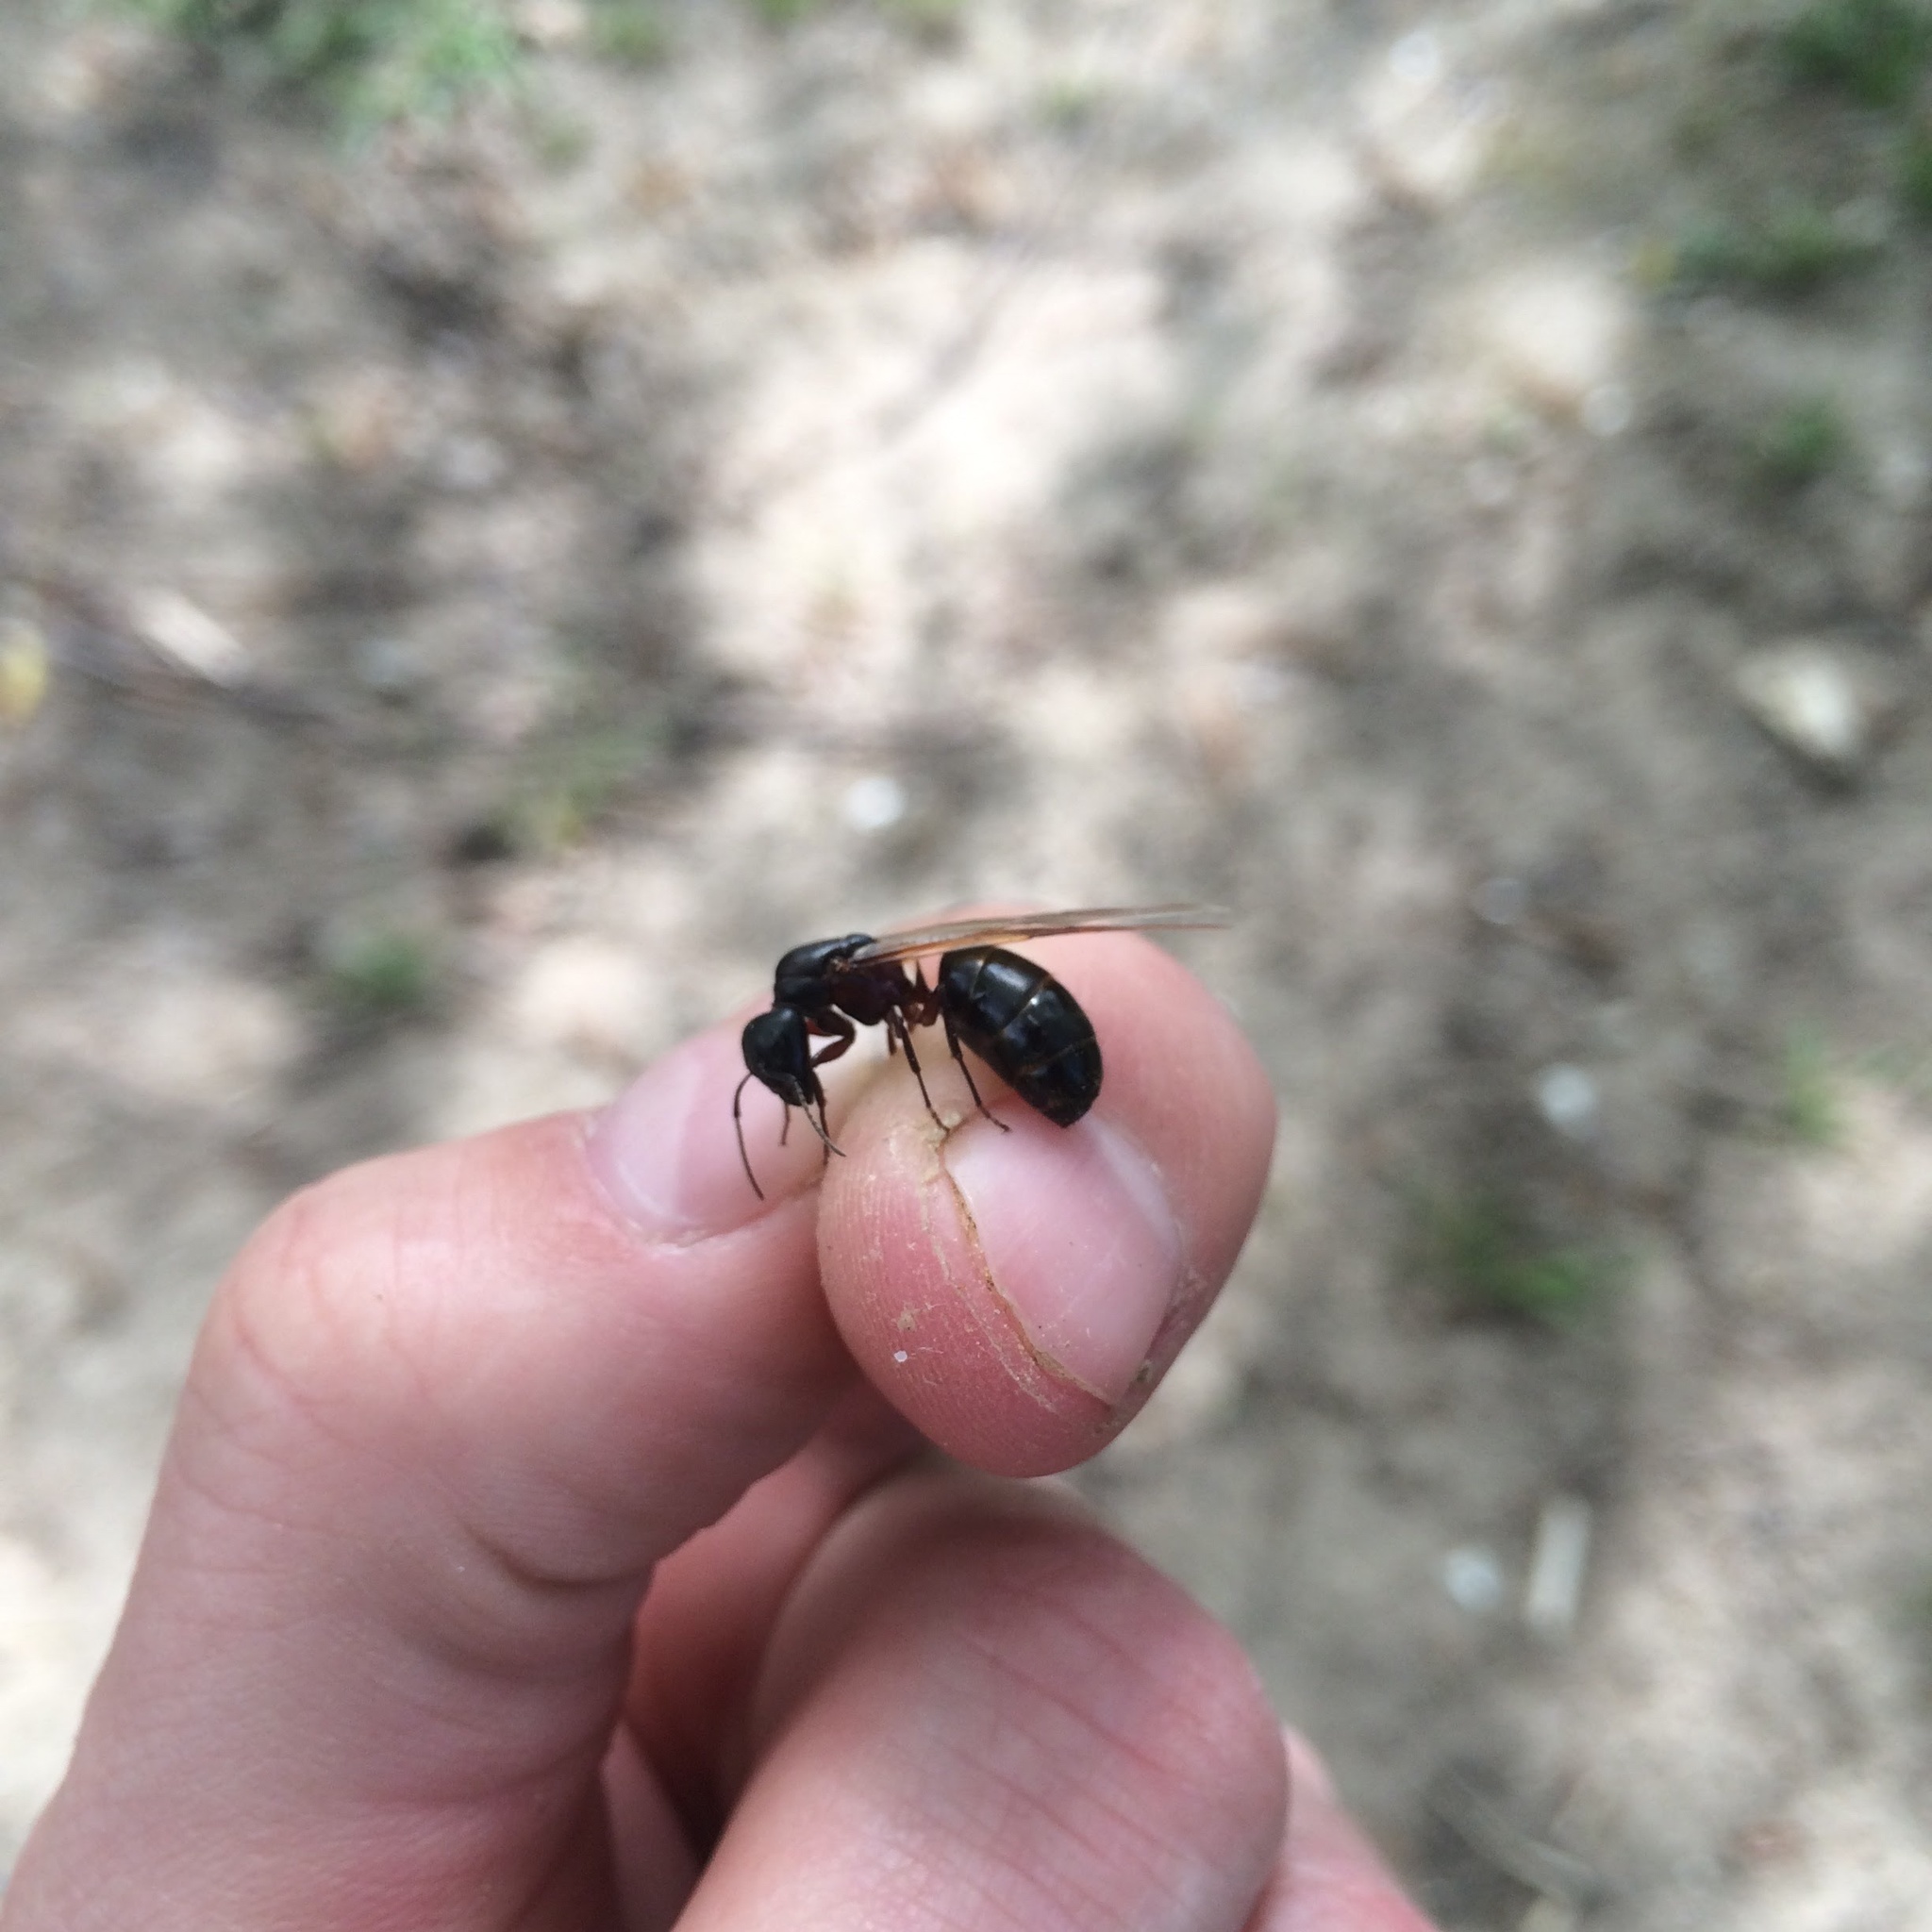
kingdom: Animalia
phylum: Arthropoda
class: Insecta
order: Hymenoptera
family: Formicidae
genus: Camponotus
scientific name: Camponotus herculeanus
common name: Hercules ant
